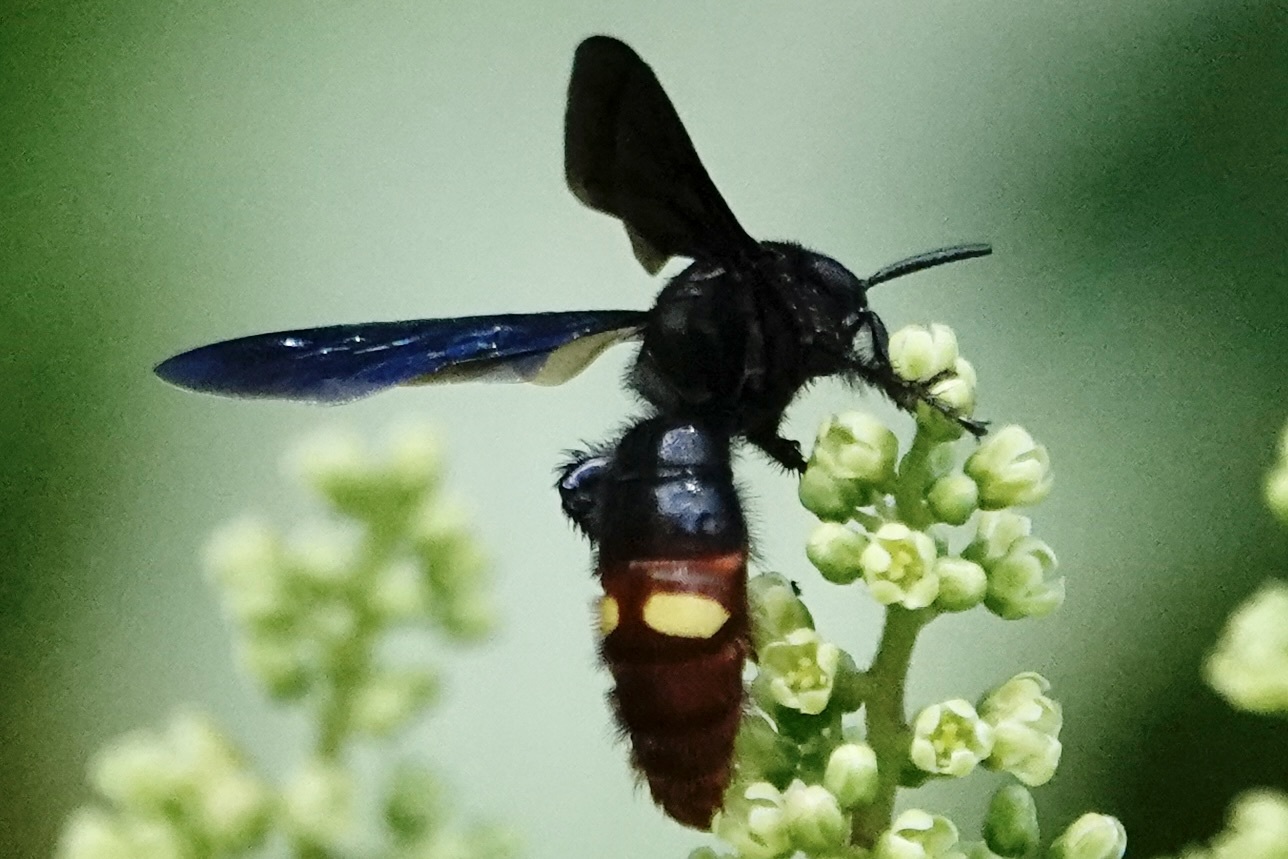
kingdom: Animalia
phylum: Arthropoda
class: Insecta
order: Hymenoptera
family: Scoliidae
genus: Scolia
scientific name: Scolia dubia
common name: Blue-winged scoliid wasp
